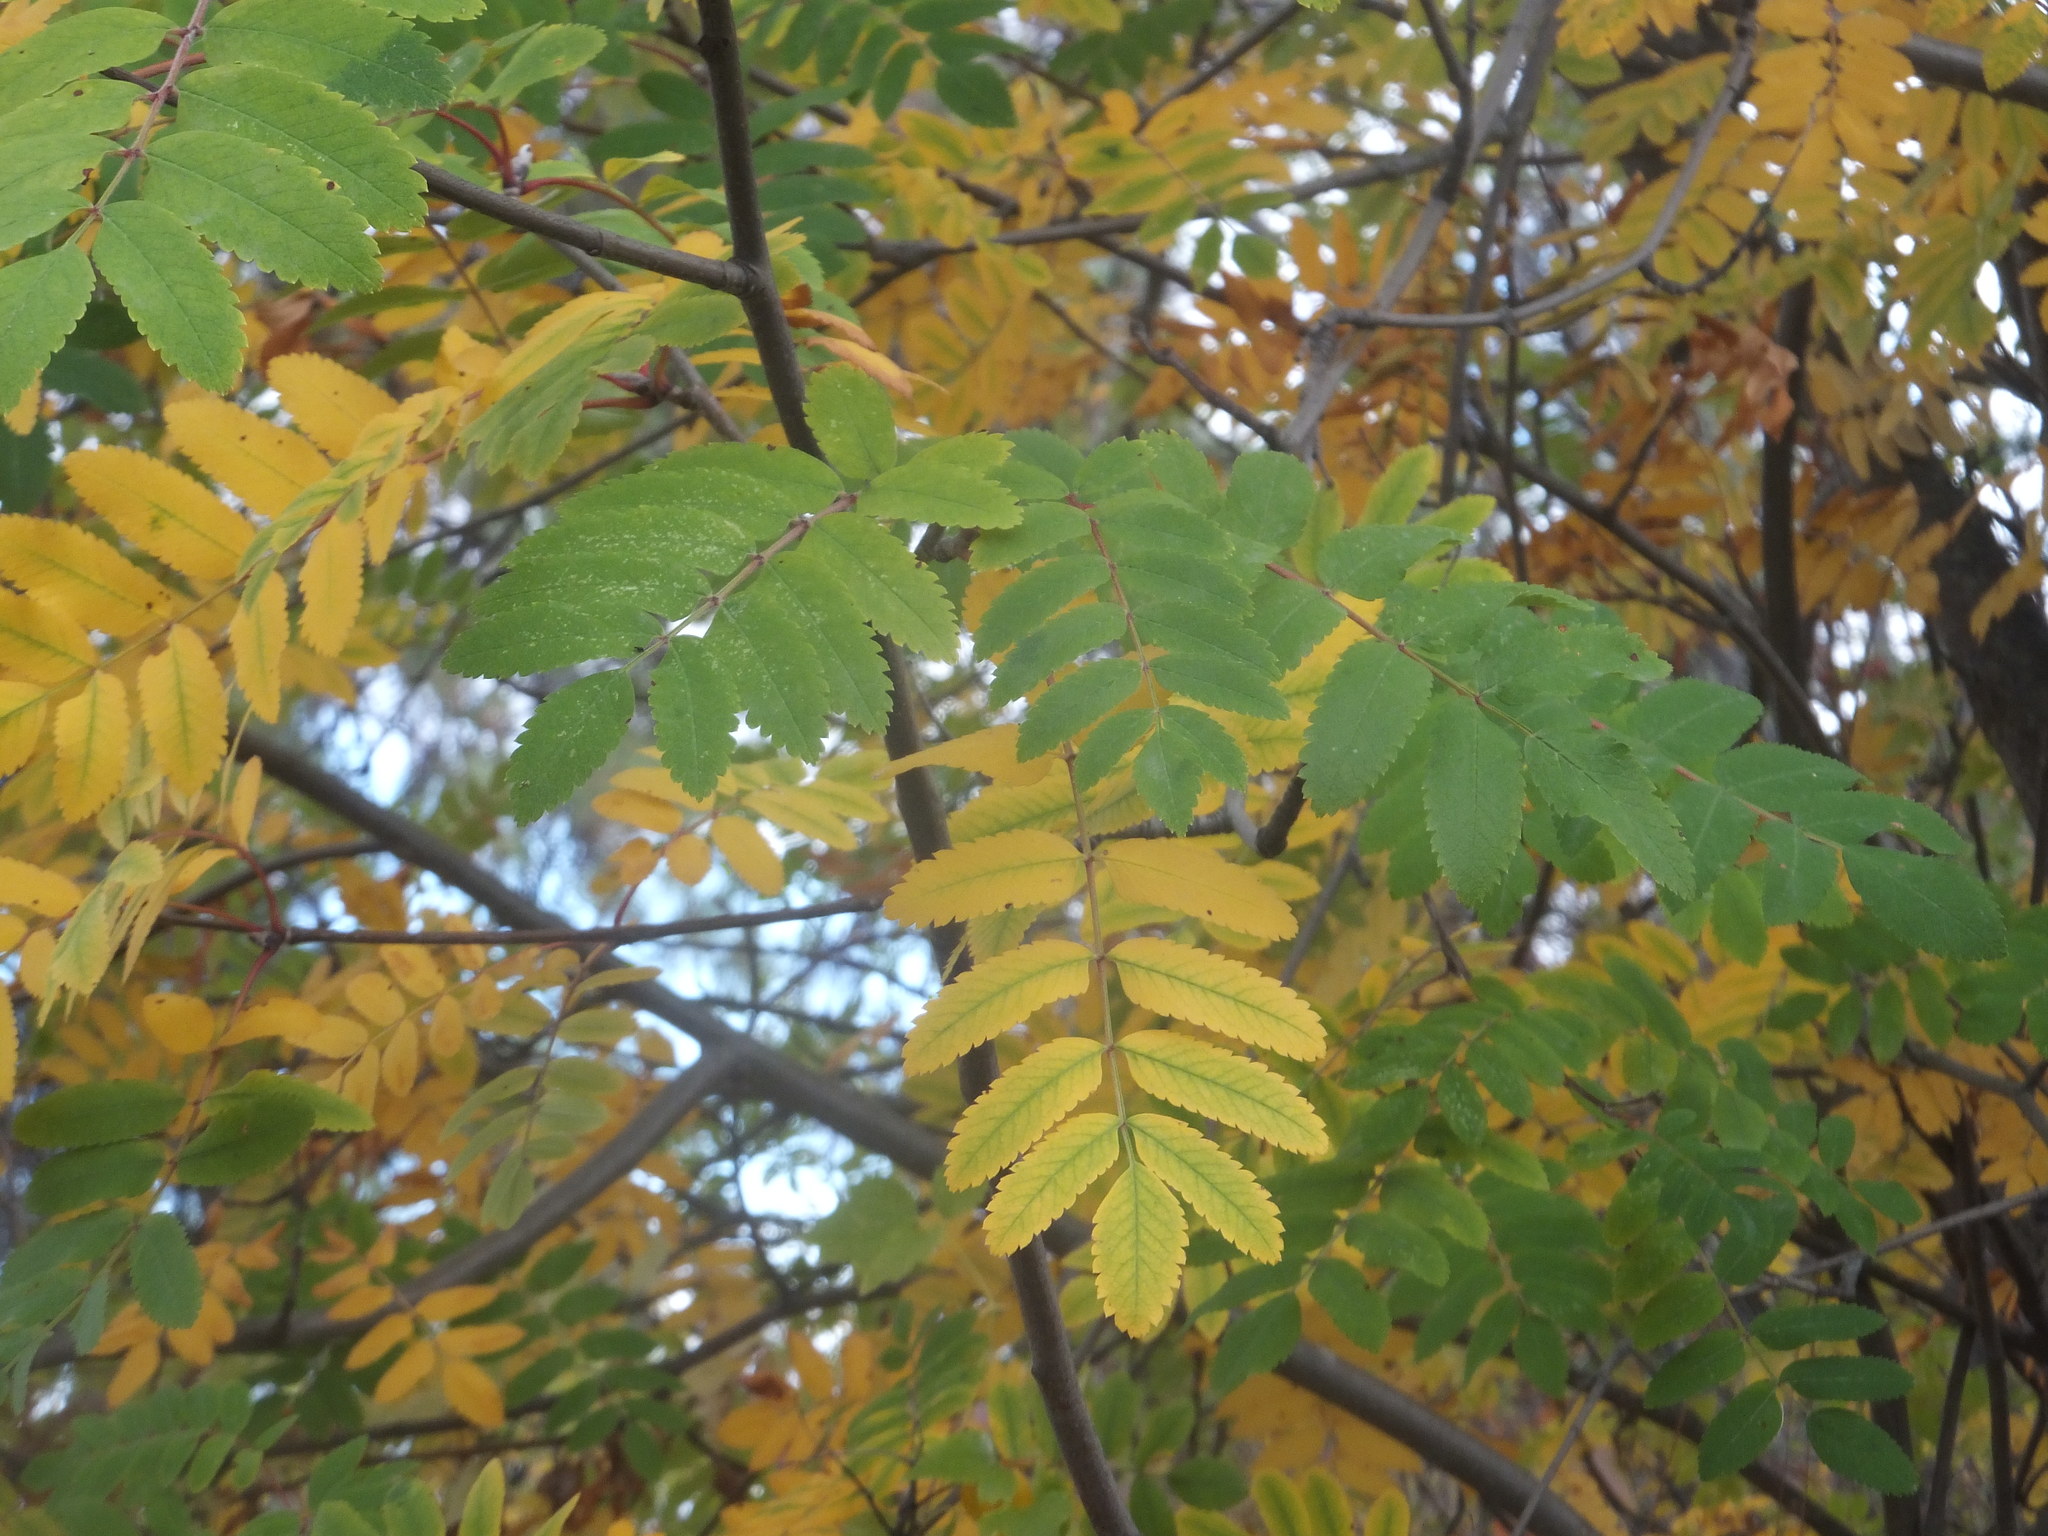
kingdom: Plantae
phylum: Tracheophyta
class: Magnoliopsida
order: Rosales
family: Rosaceae
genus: Sorbus
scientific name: Sorbus aucuparia
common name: Rowan
